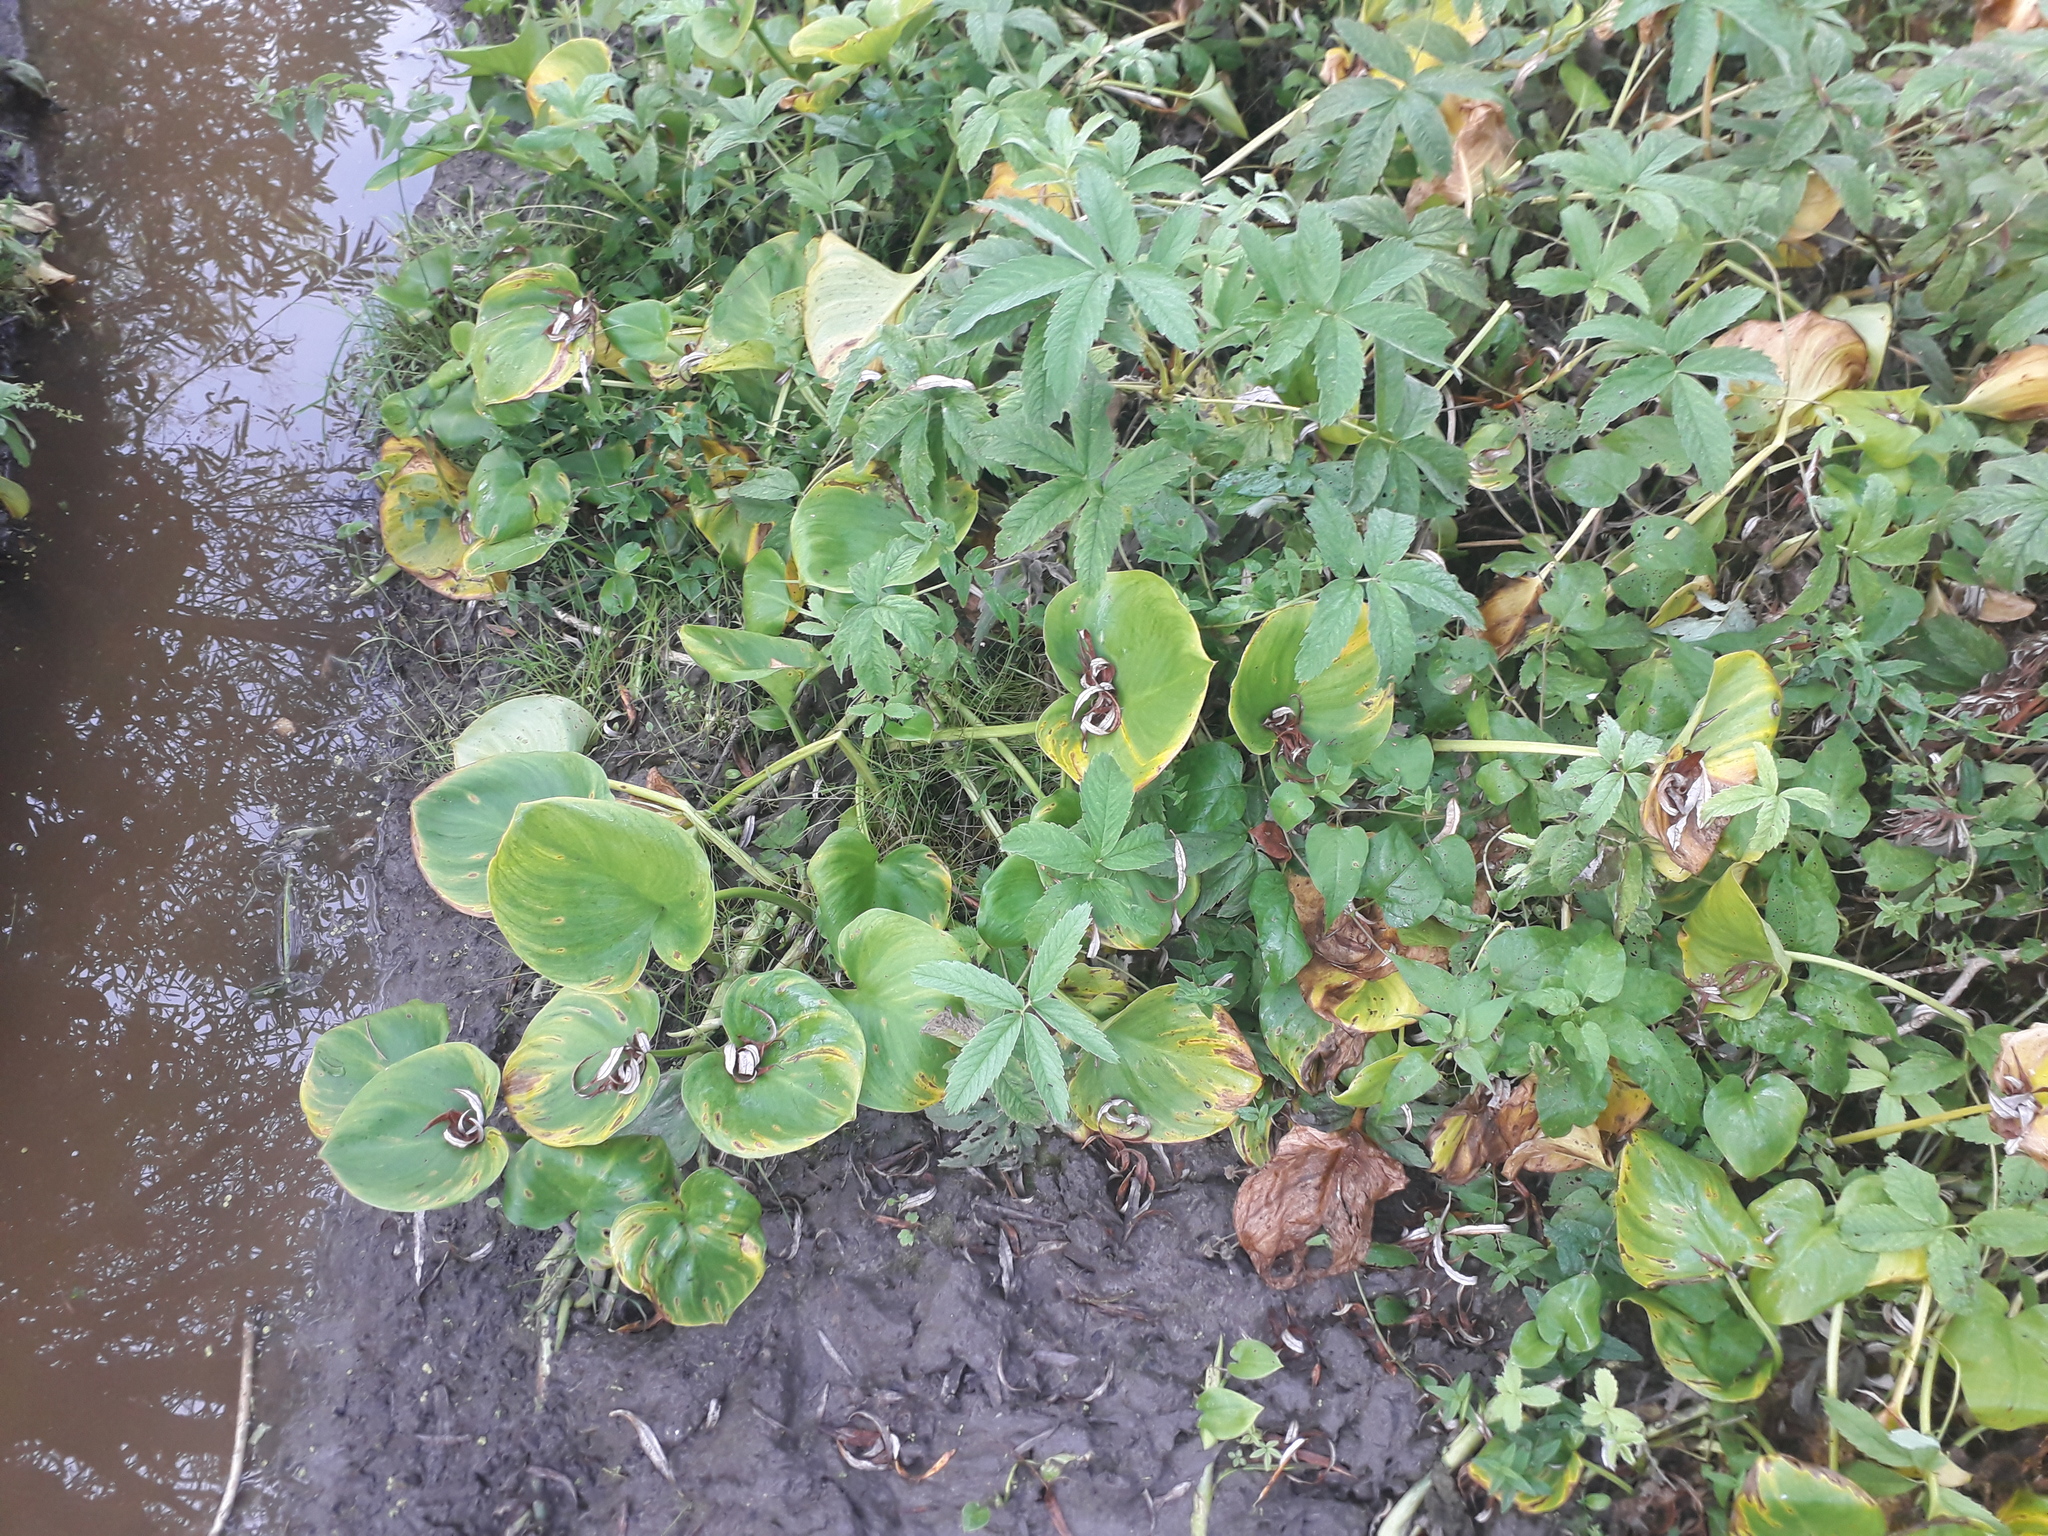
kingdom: Plantae
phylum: Tracheophyta
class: Liliopsida
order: Alismatales
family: Araceae
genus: Calla
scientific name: Calla palustris
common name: Bog arum
